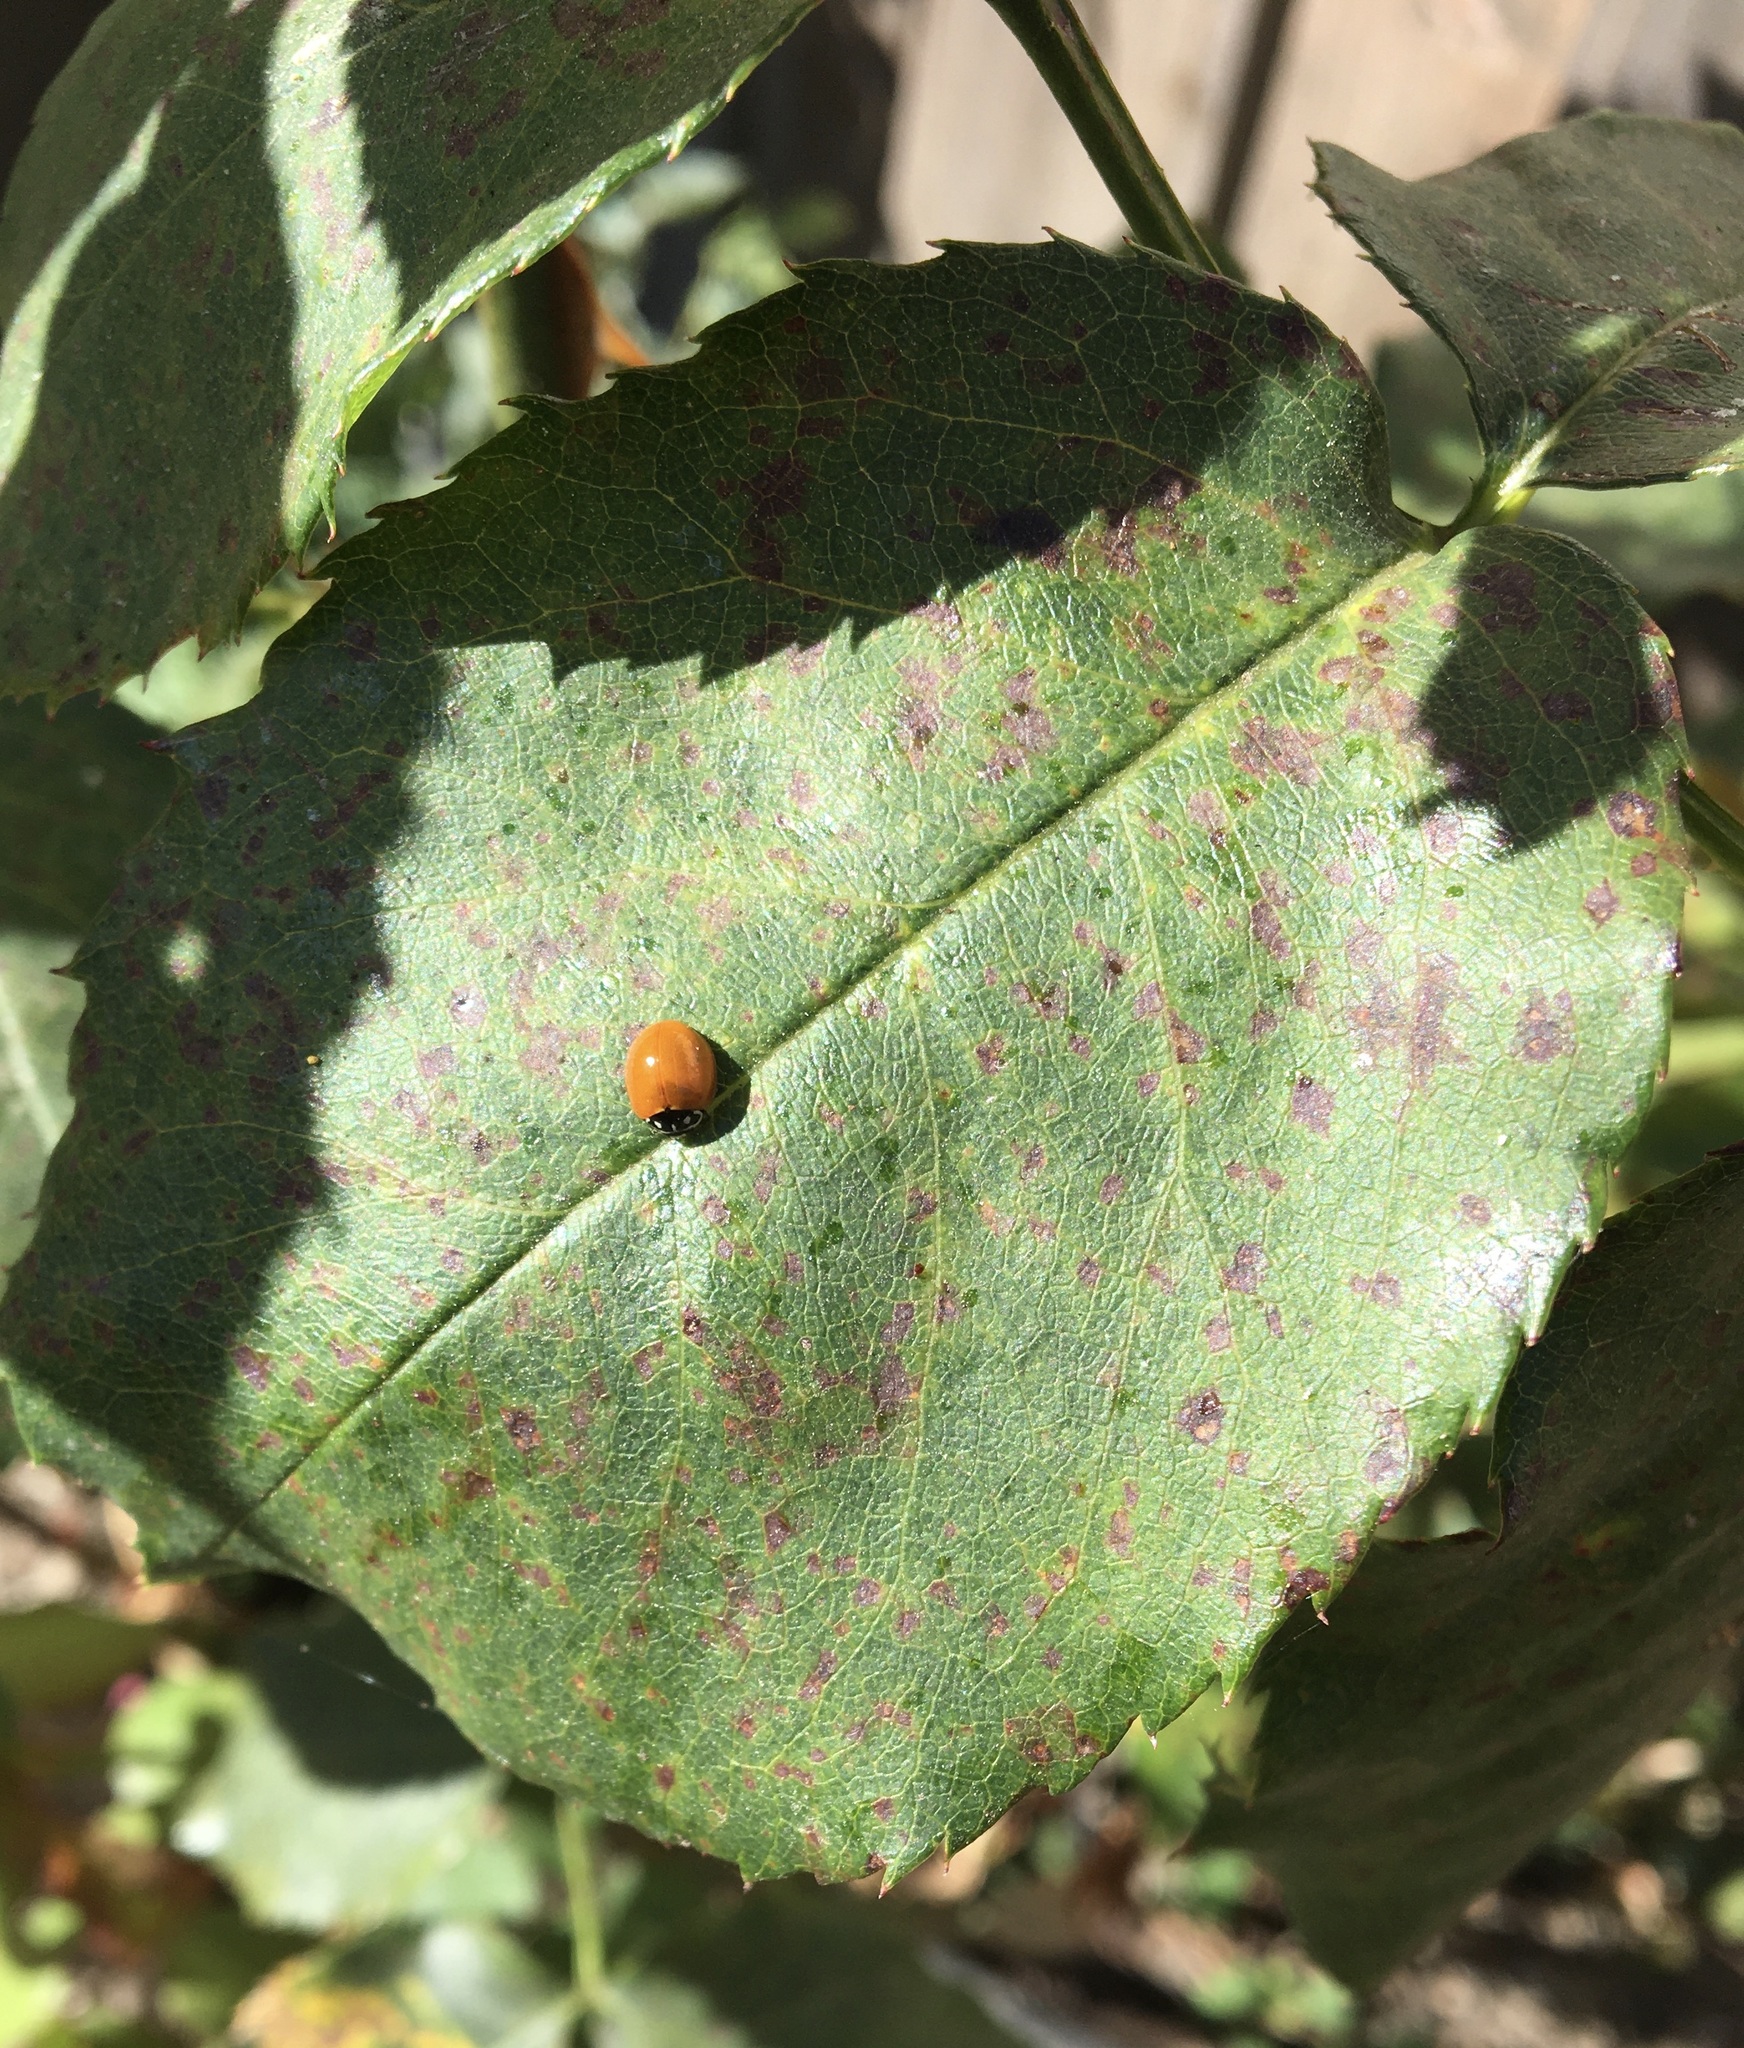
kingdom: Animalia
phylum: Arthropoda
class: Insecta
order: Coleoptera
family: Coccinellidae
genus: Cycloneda
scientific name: Cycloneda sanguinea
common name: Ladybird beetle
